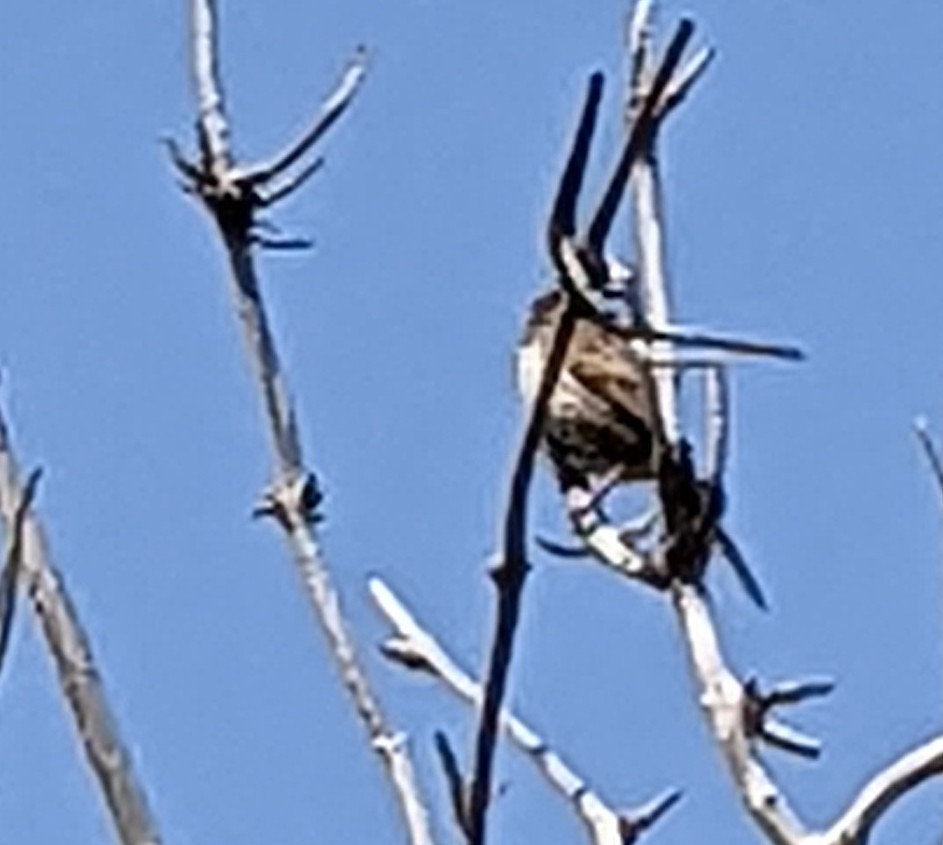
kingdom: Animalia
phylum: Chordata
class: Aves
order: Passeriformes
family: Passerellidae
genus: Melospiza
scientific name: Melospiza melodia
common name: Song sparrow
